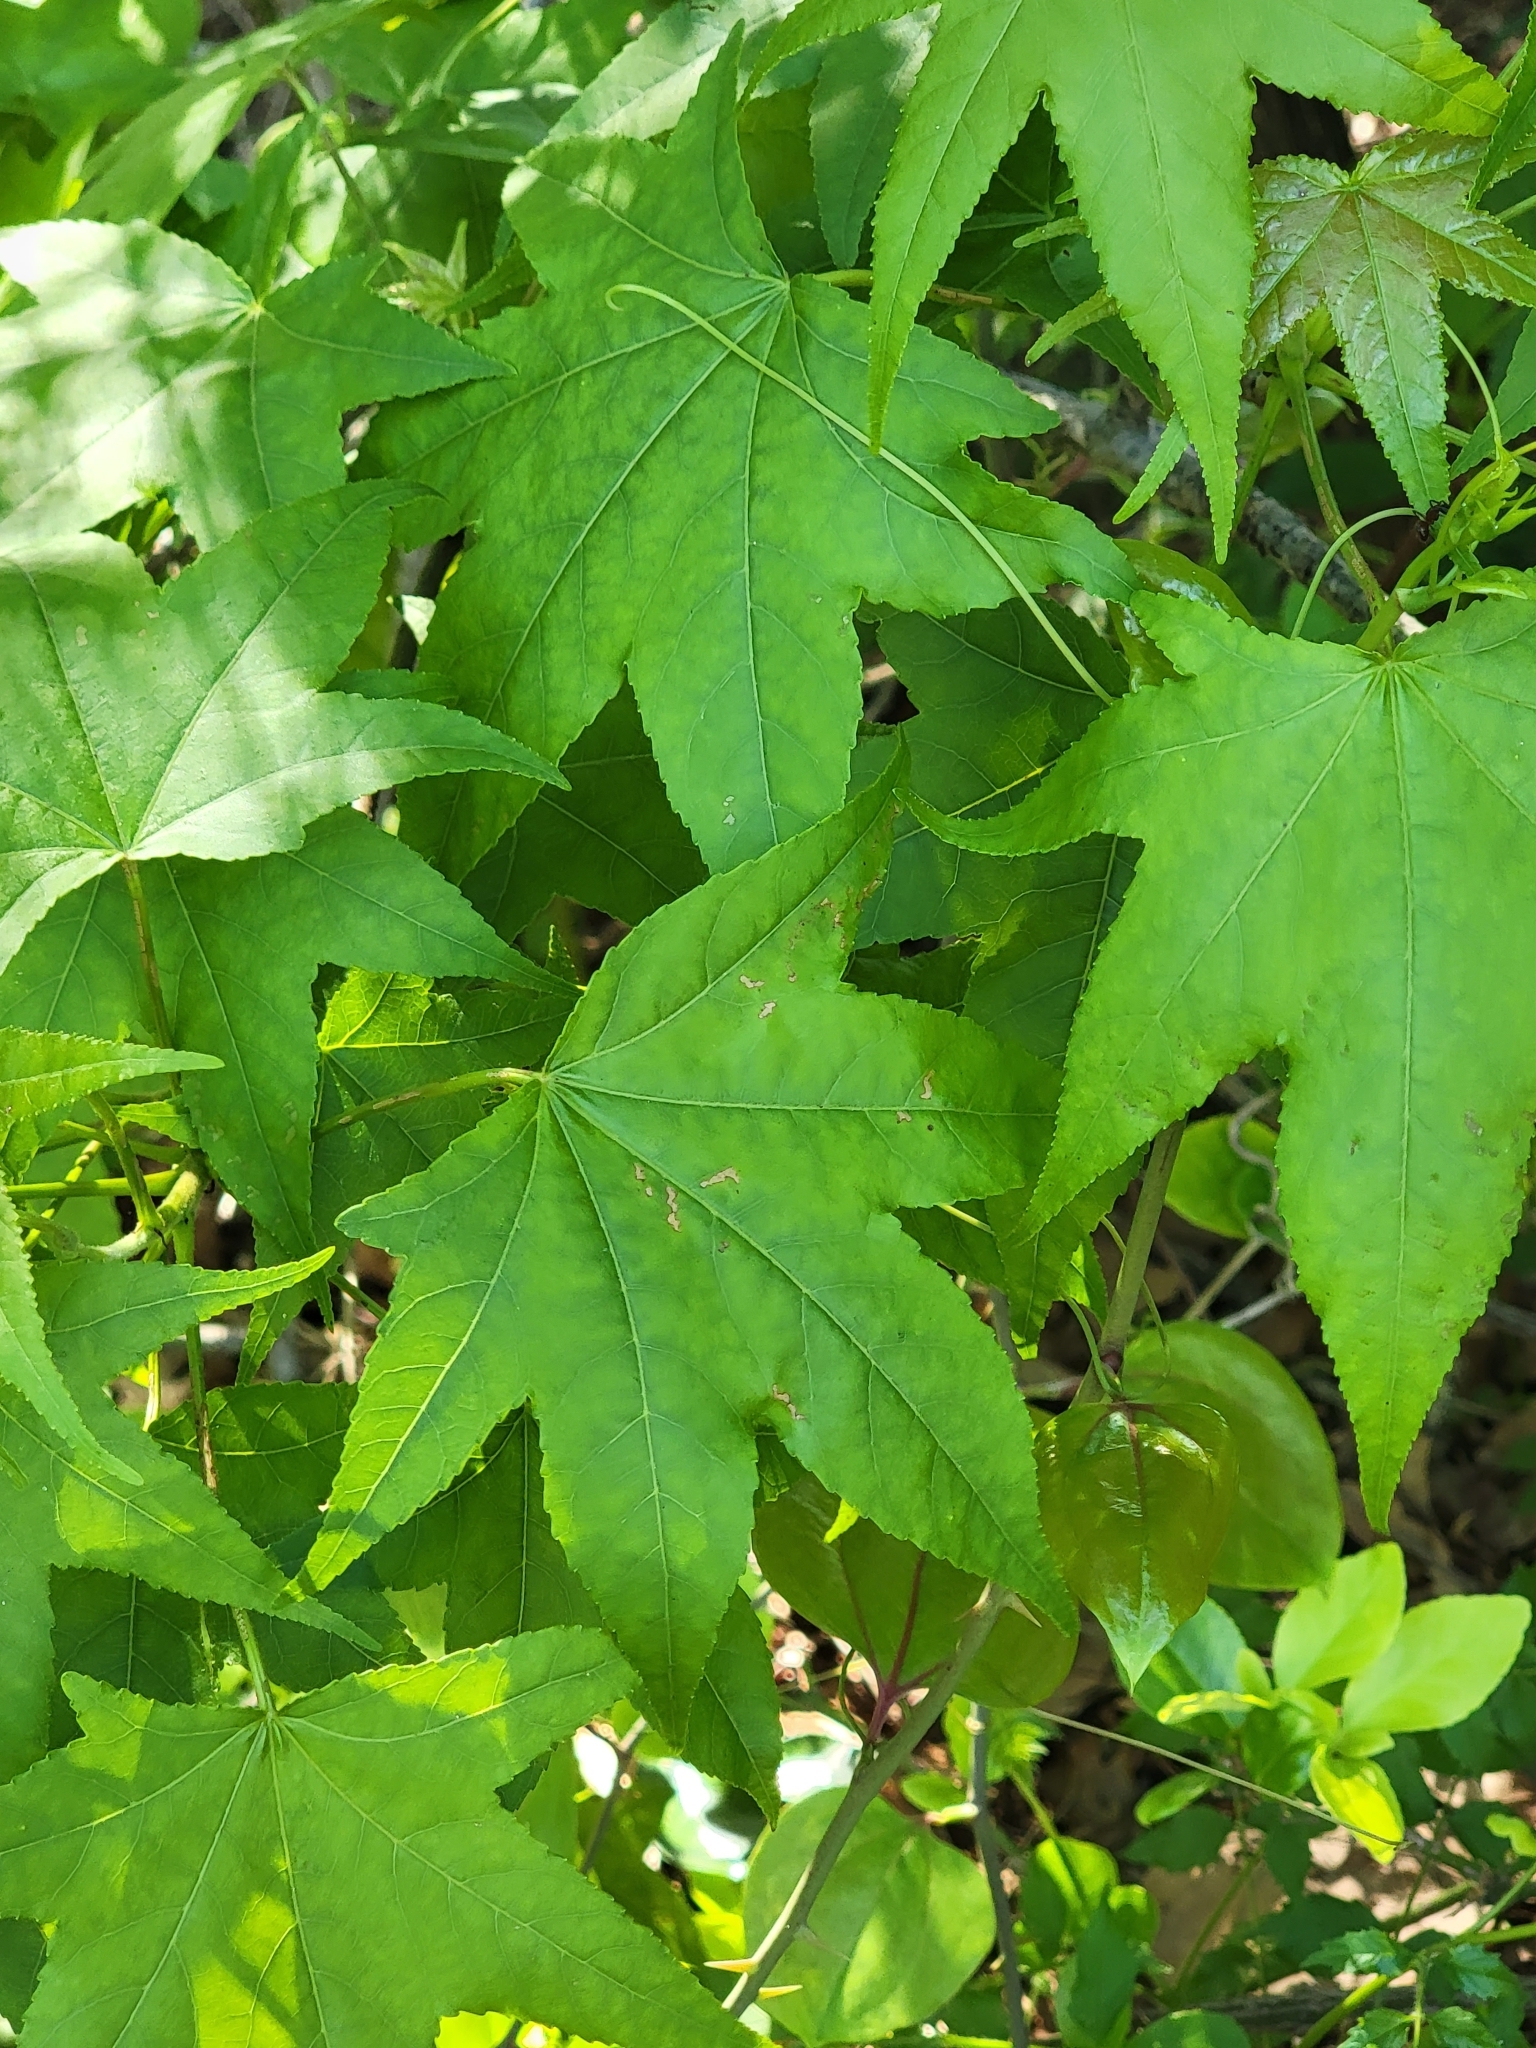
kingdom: Plantae
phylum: Tracheophyta
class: Magnoliopsida
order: Saxifragales
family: Altingiaceae
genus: Liquidambar
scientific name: Liquidambar styraciflua
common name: Sweet gum
